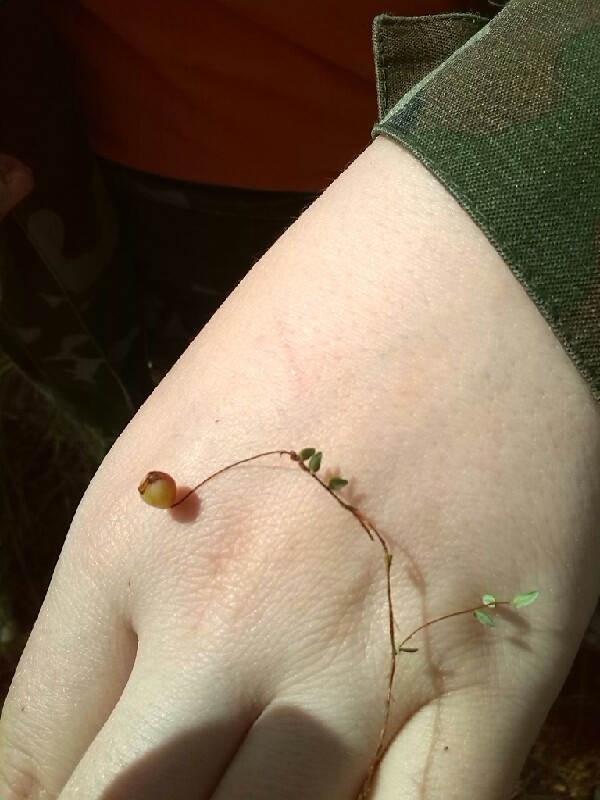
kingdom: Plantae
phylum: Tracheophyta
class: Magnoliopsida
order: Ericales
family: Ericaceae
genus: Vaccinium
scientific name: Vaccinium microcarpum
